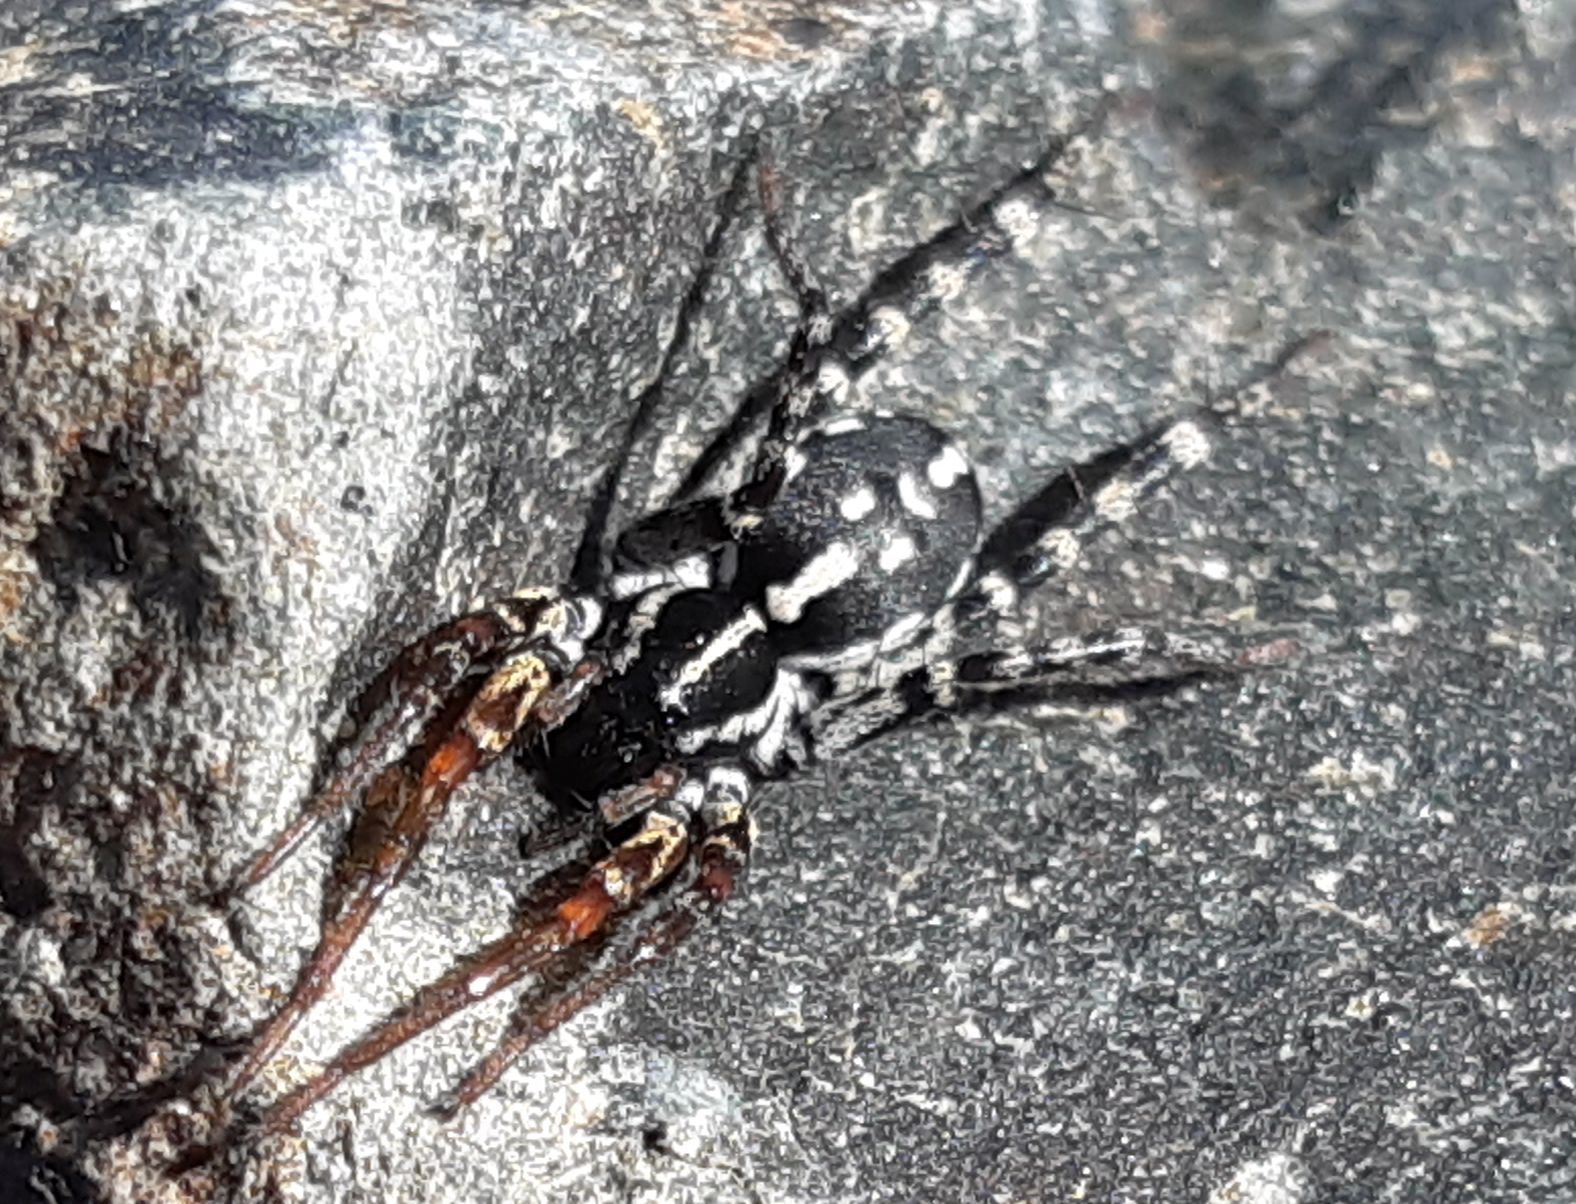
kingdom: Animalia
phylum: Arthropoda
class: Arachnida
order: Araneae
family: Corinnidae
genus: Nyssus
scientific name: Nyssus coloripes
